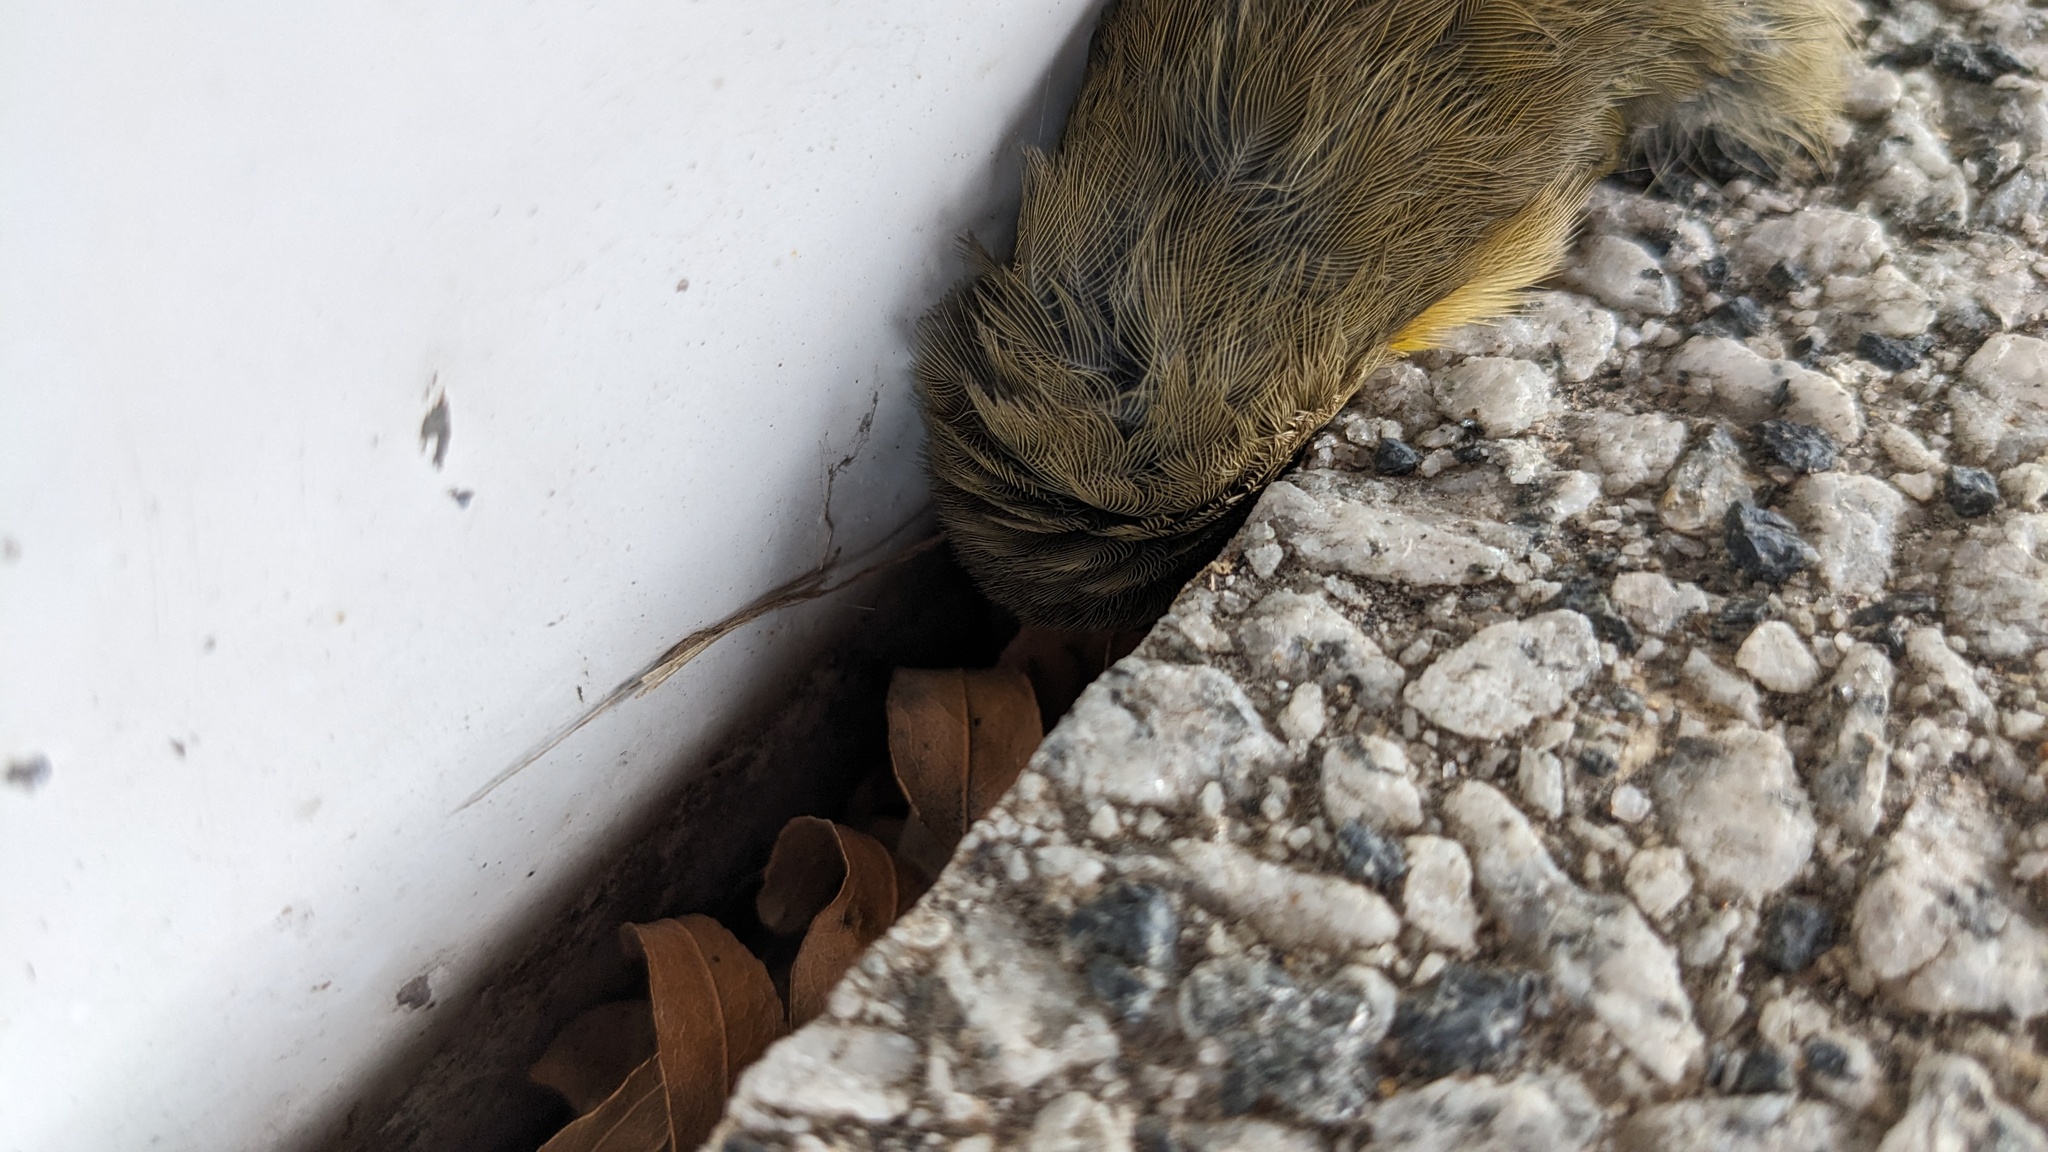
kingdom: Animalia
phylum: Chordata
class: Aves
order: Passeriformes
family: Parulidae
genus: Geothlypis
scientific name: Geothlypis trichas
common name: Common yellowthroat
